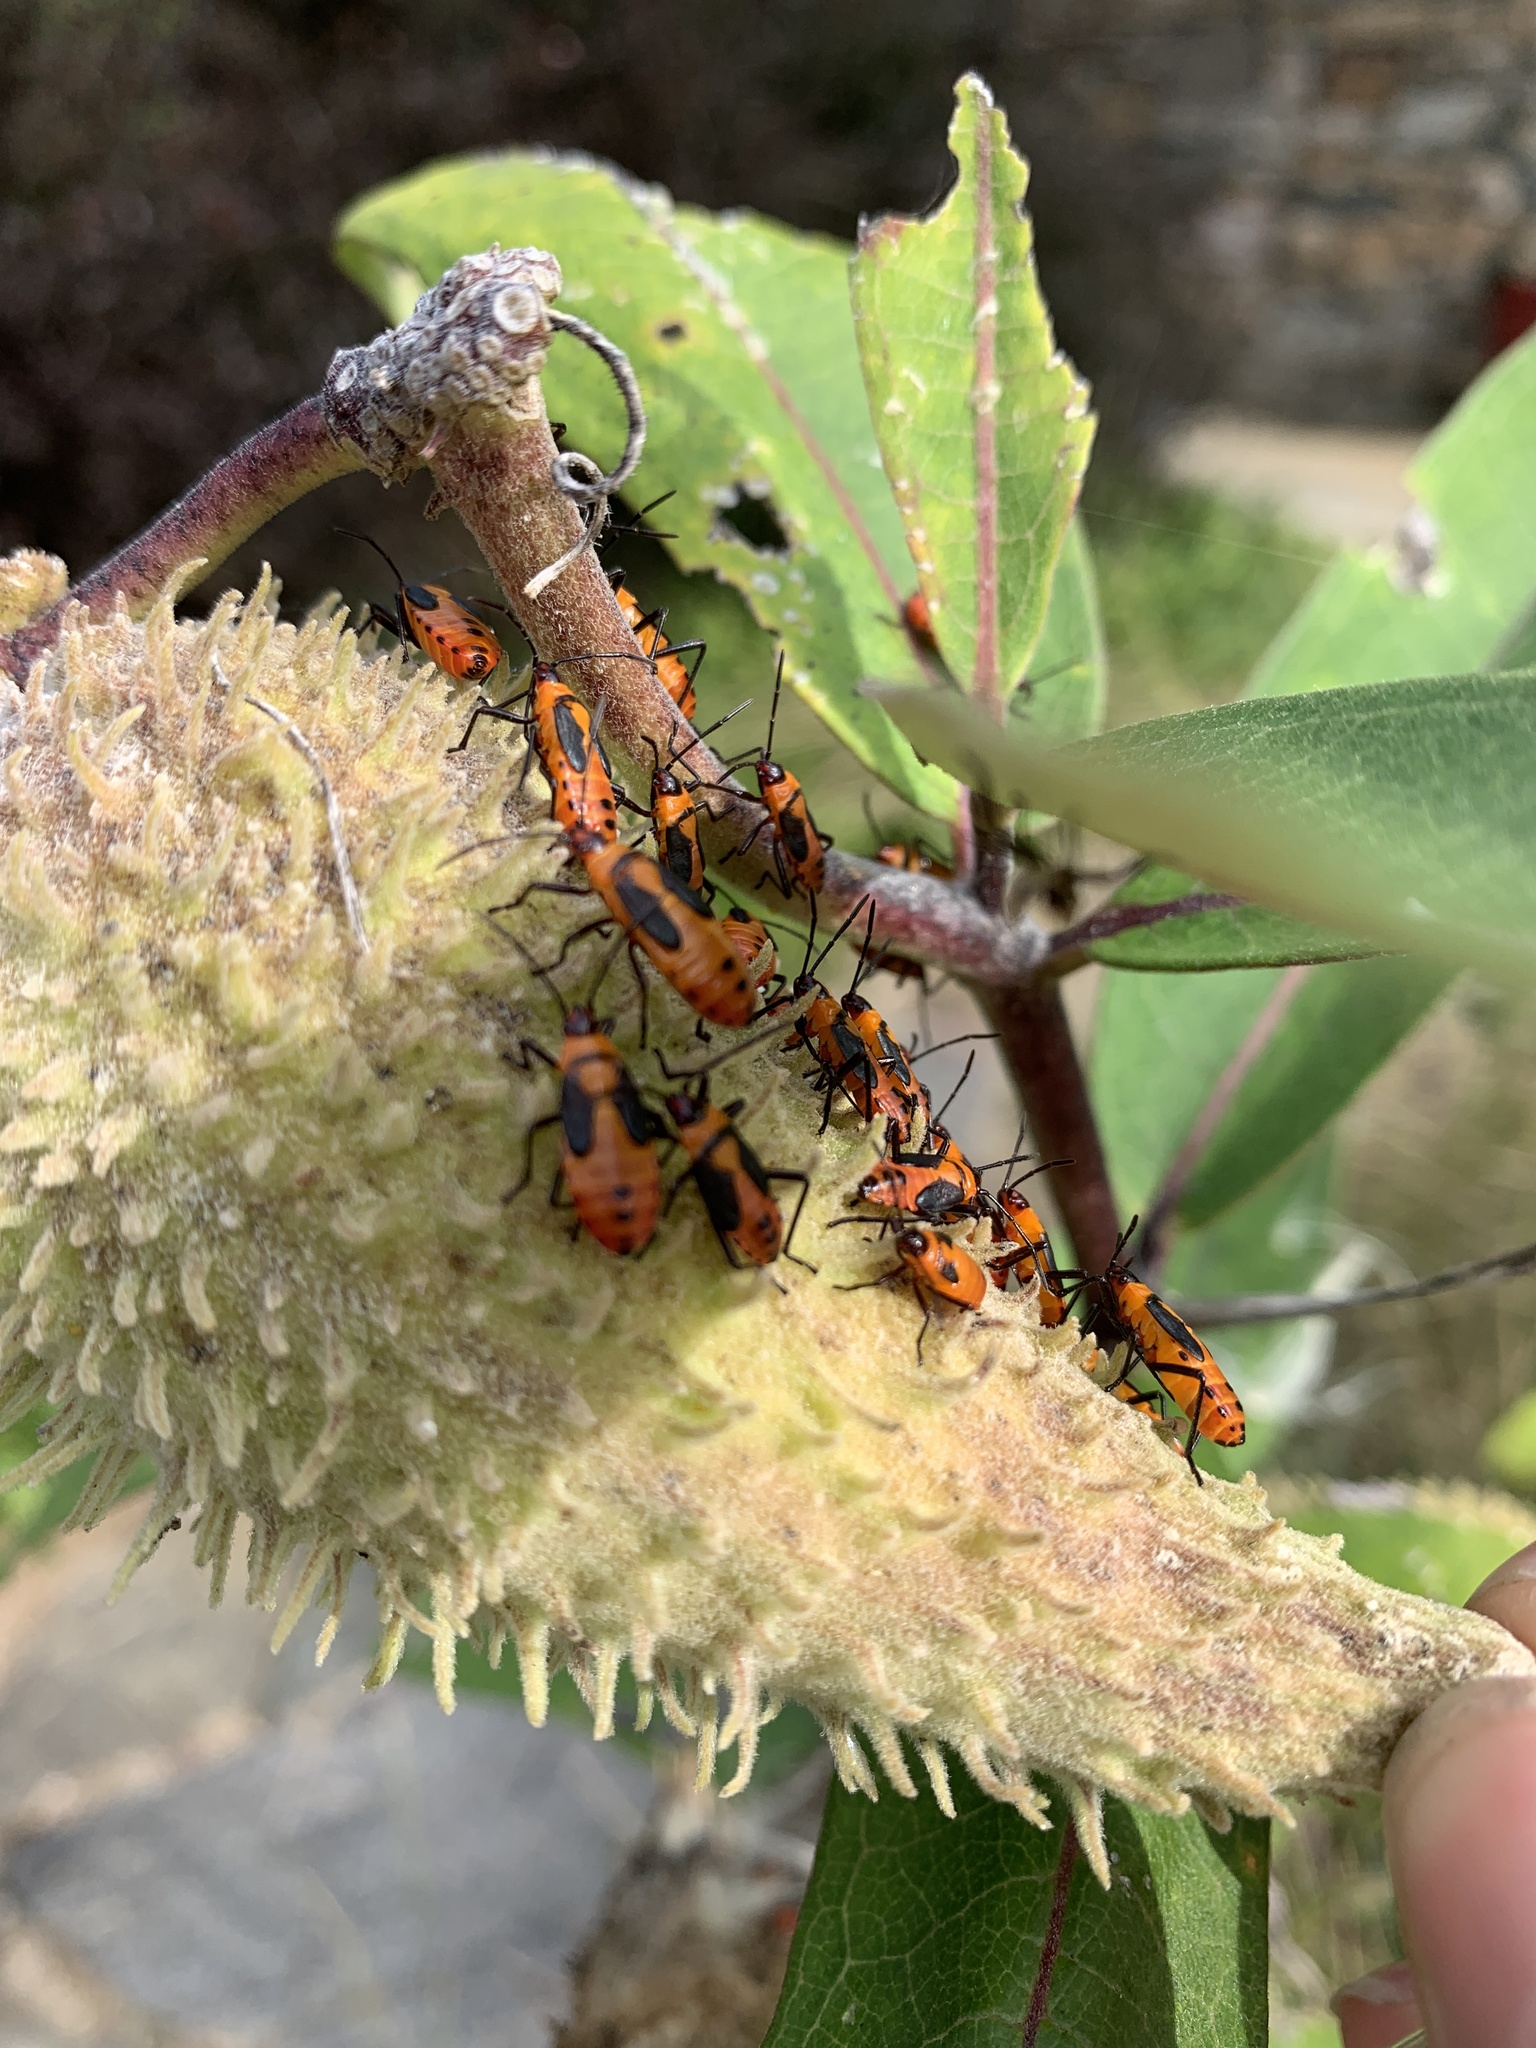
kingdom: Animalia
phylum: Arthropoda
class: Insecta
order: Hemiptera
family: Lygaeidae
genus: Oncopeltus
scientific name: Oncopeltus fasciatus
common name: Large milkweed bug
